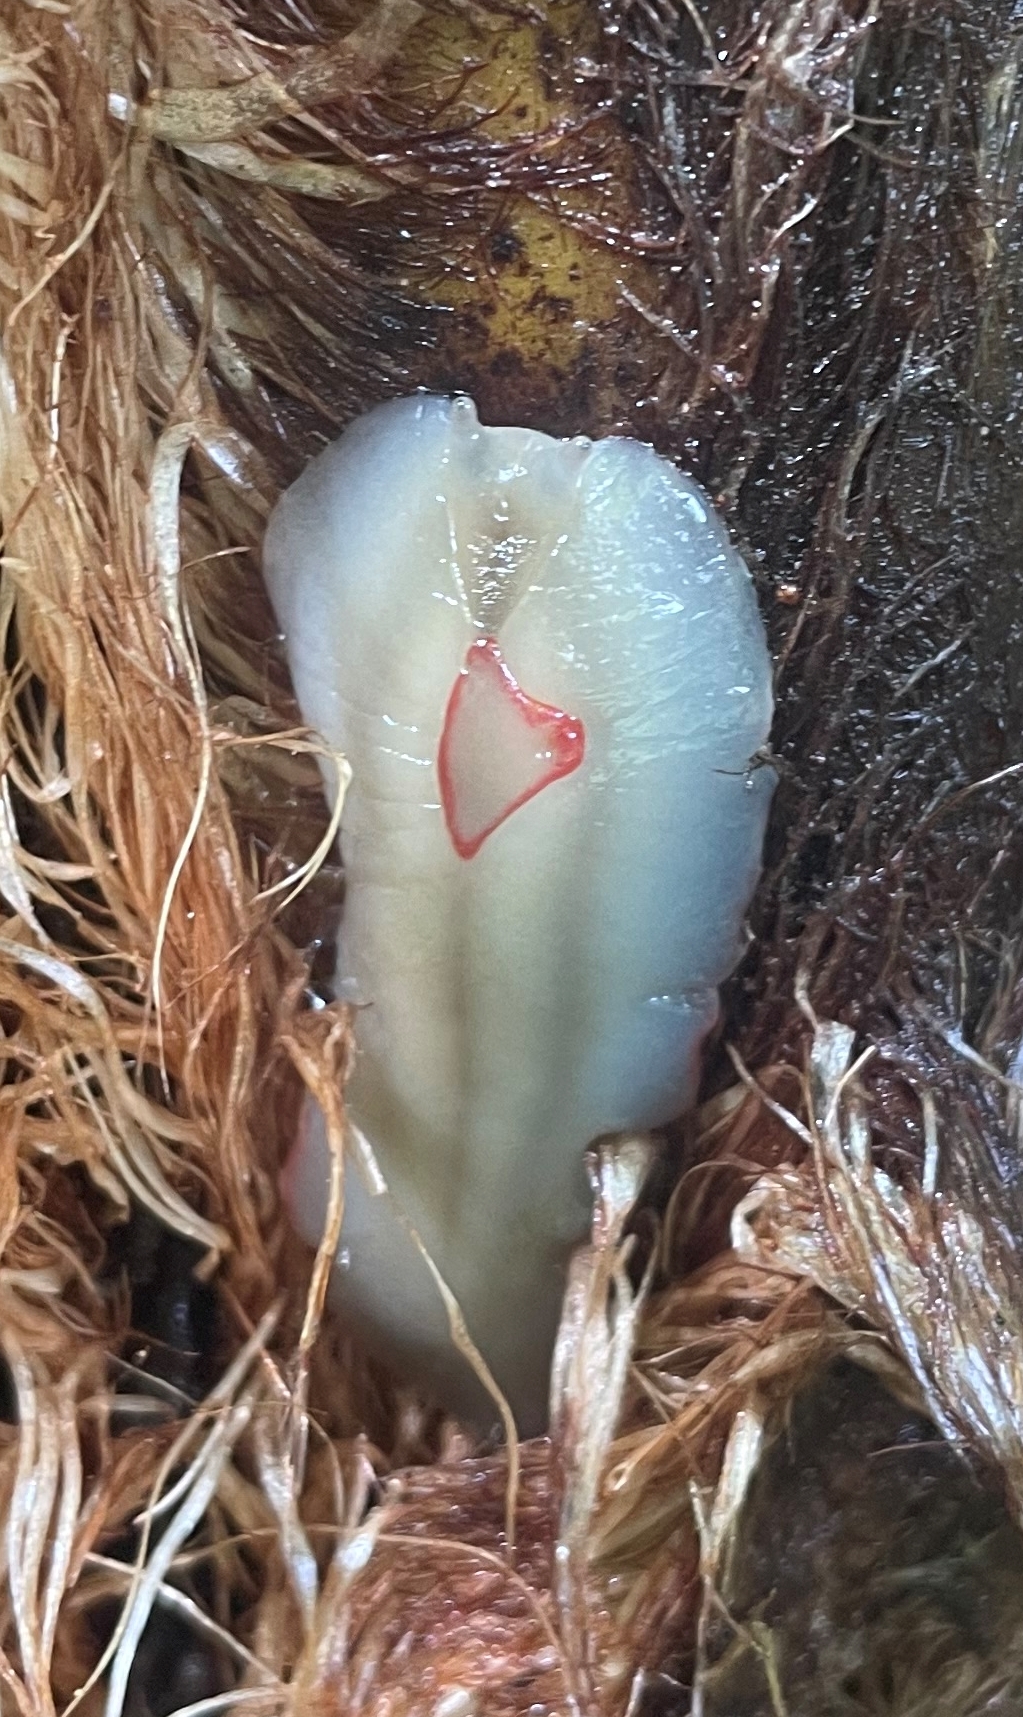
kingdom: Animalia
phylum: Mollusca
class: Gastropoda
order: Stylommatophora
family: Athoracophoridae
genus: Triboniophorus
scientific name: Triboniophorus graeffei
